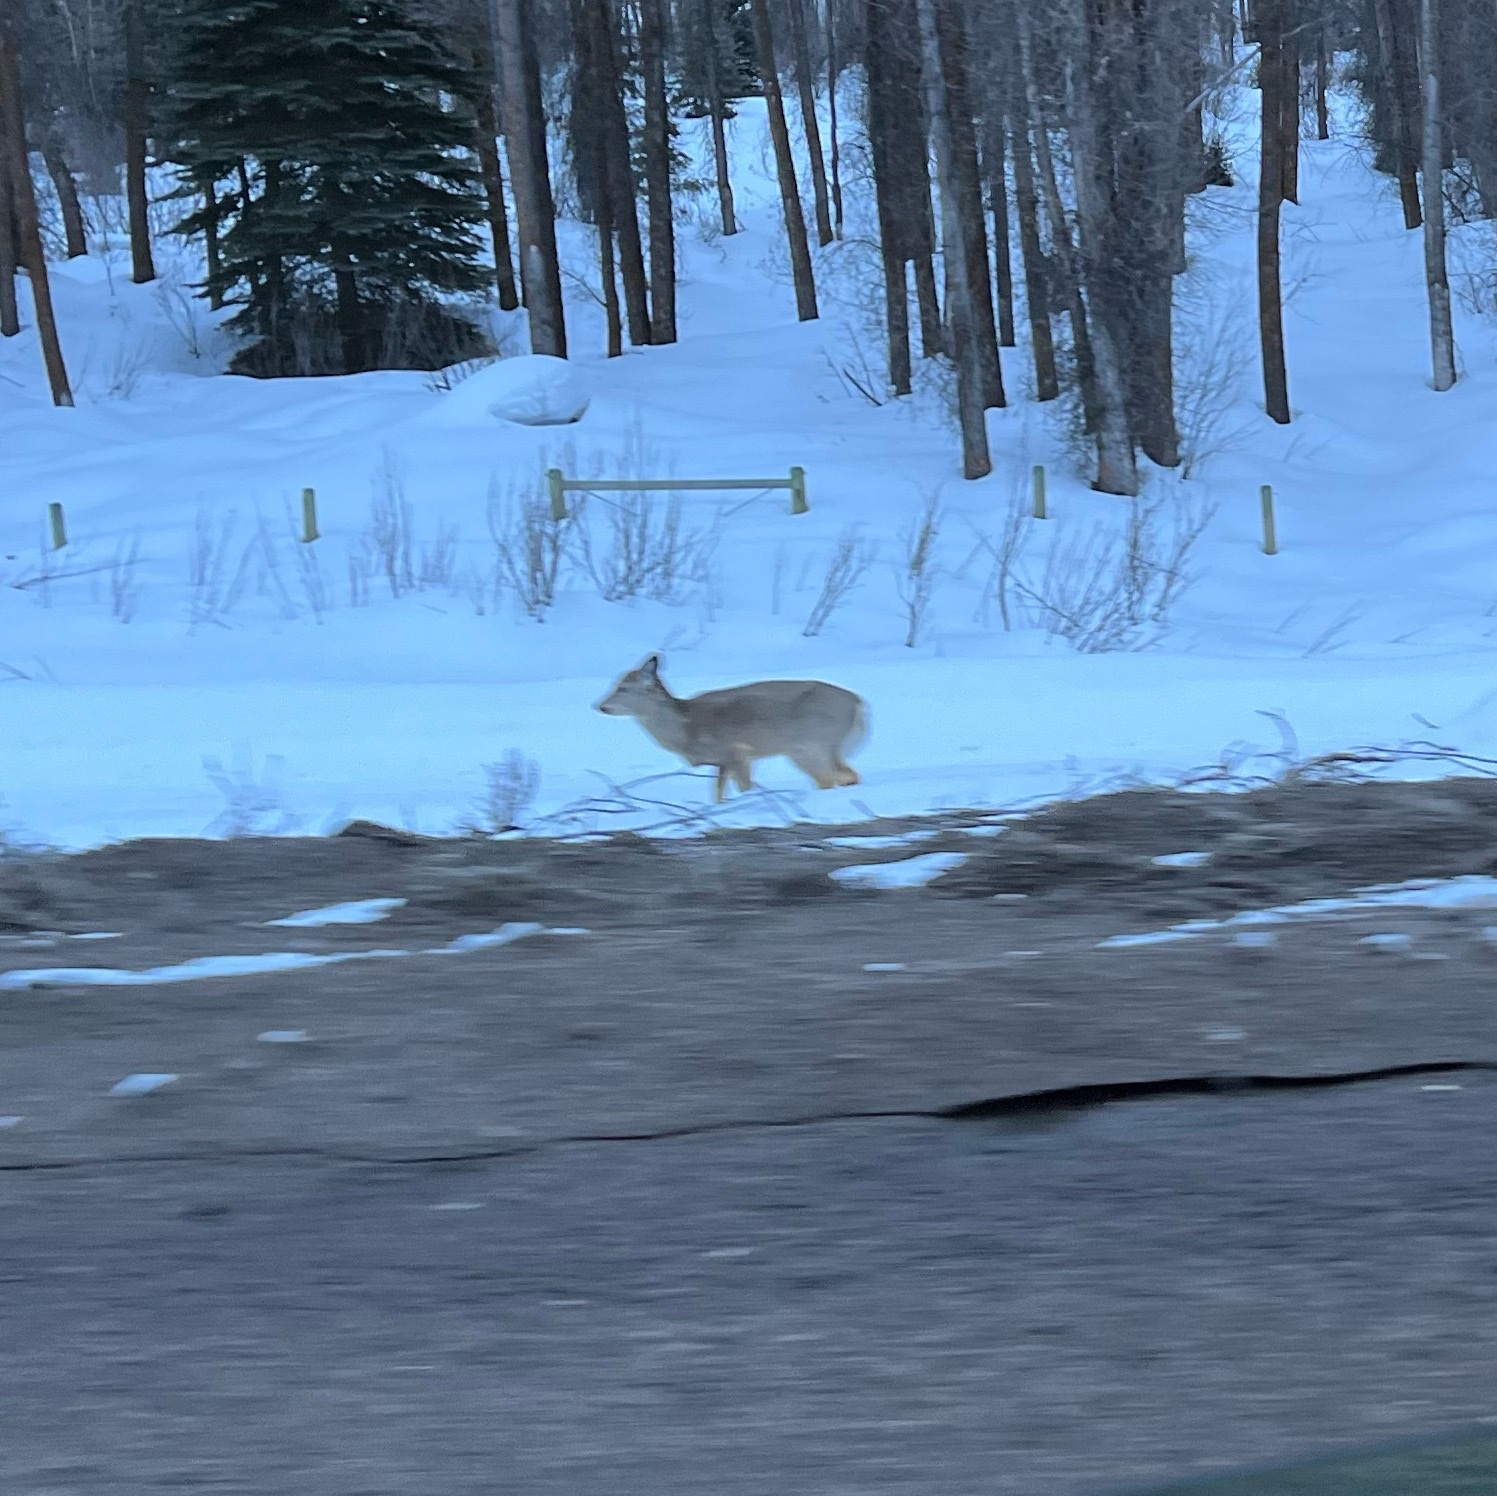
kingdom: Animalia
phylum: Chordata
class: Mammalia
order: Artiodactyla
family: Cervidae
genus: Odocoileus
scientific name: Odocoileus virginianus
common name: White-tailed deer
